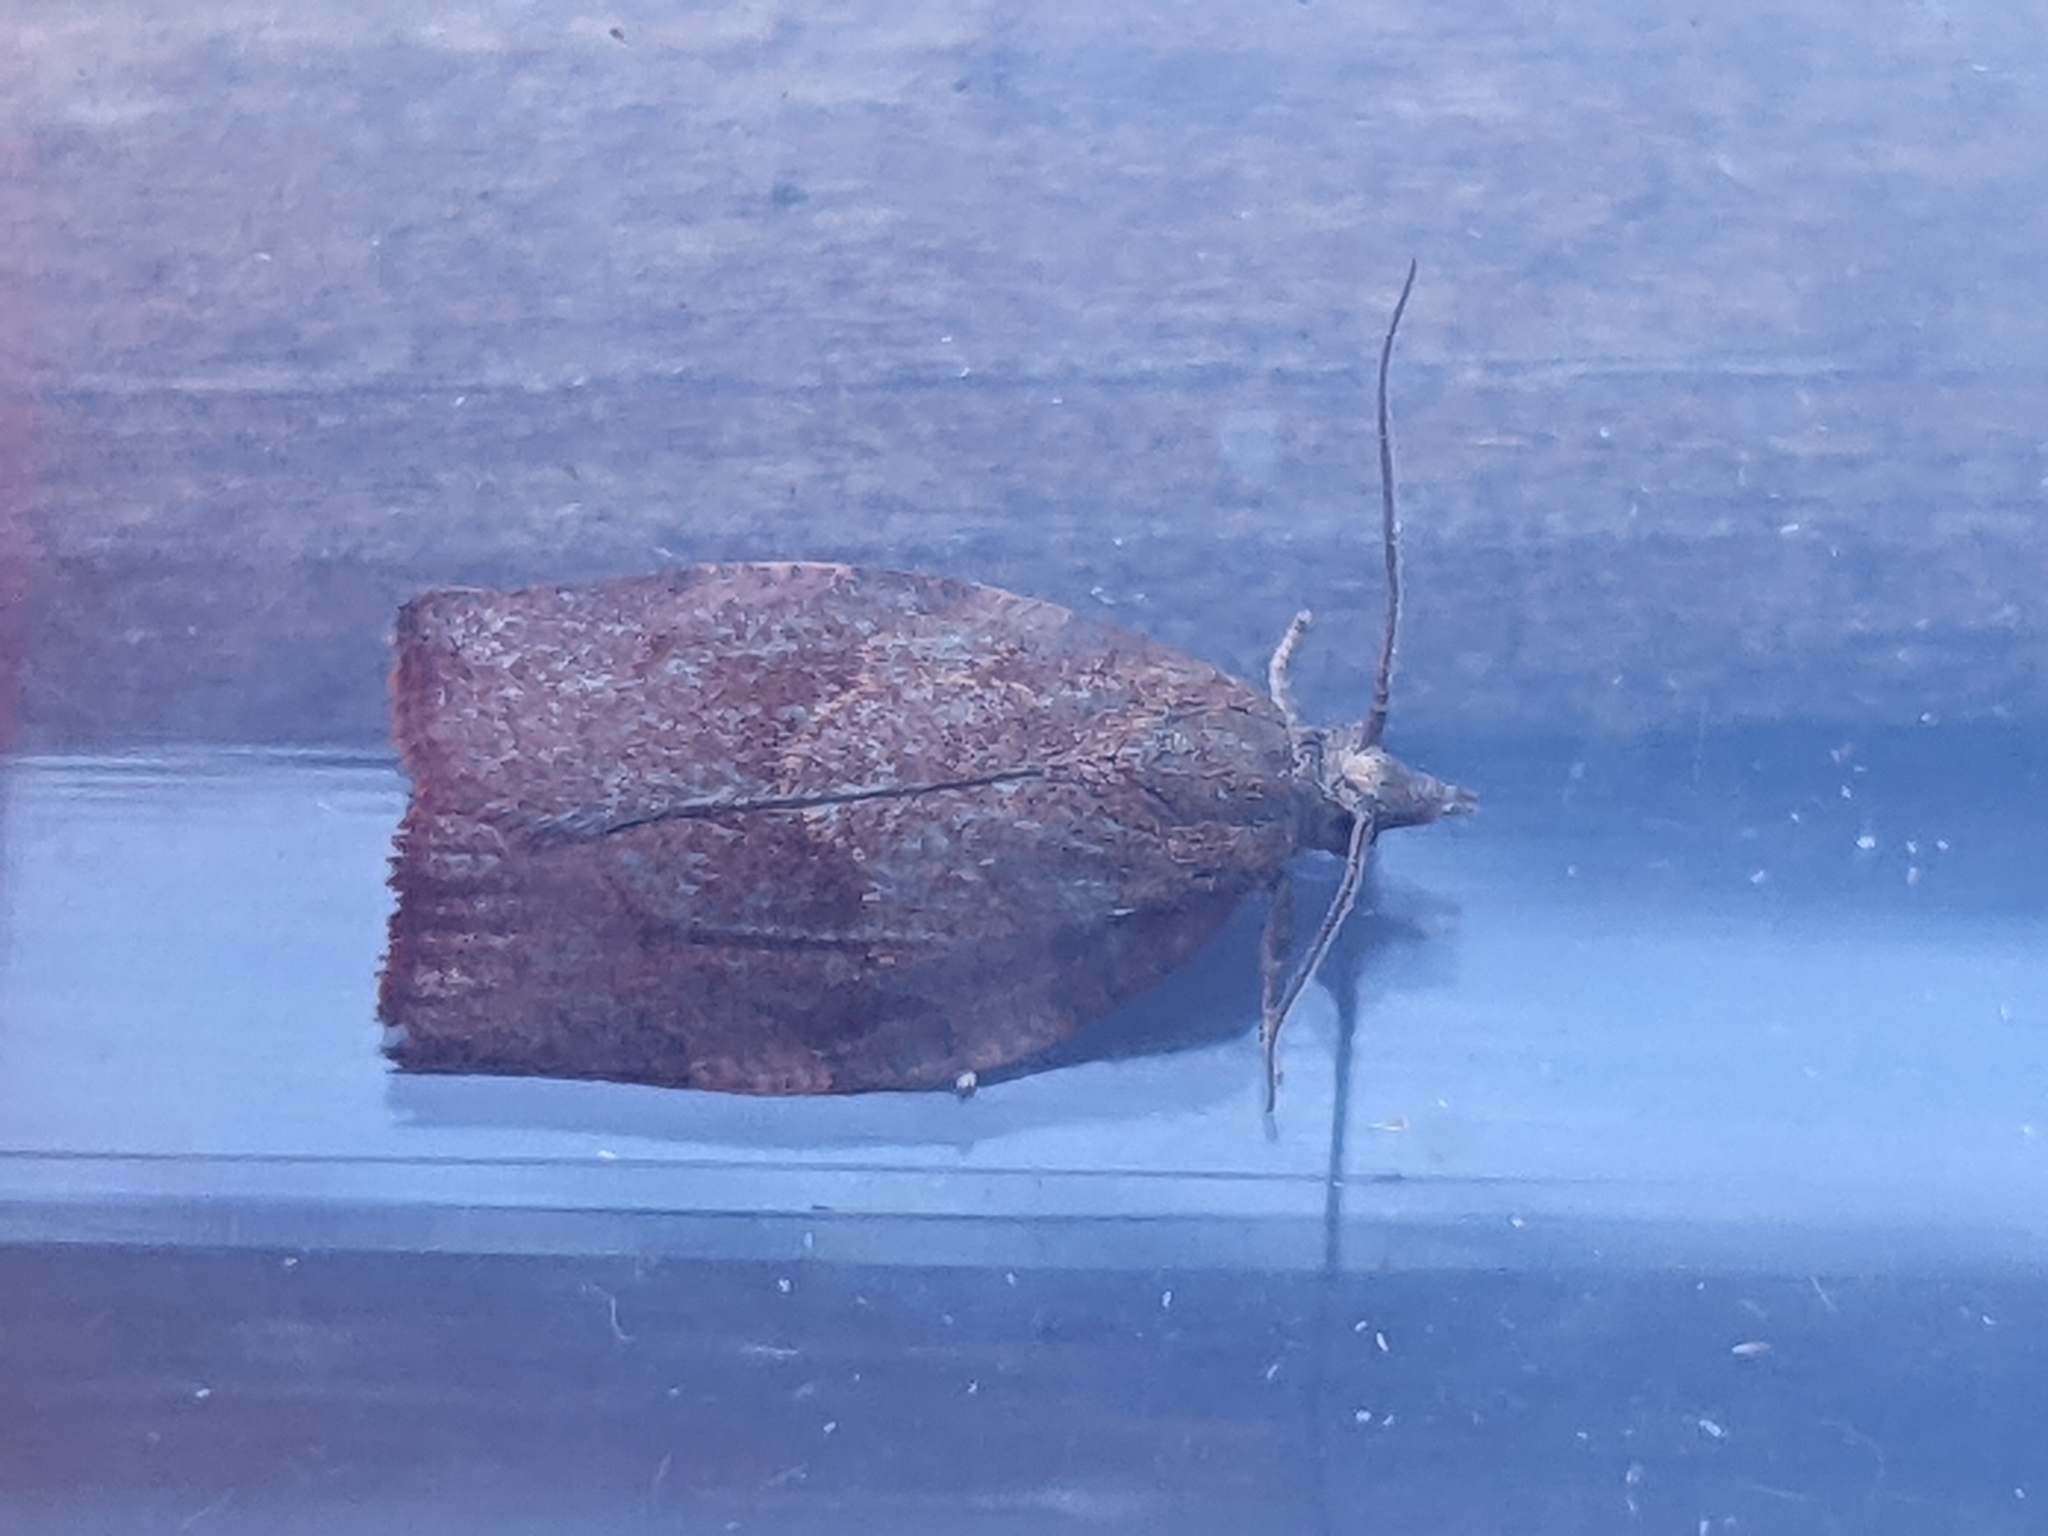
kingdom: Animalia
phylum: Arthropoda
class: Insecta
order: Lepidoptera
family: Tortricidae
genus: Pandemis
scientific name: Pandemis heparana
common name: Dark fruit-tree tortrix
